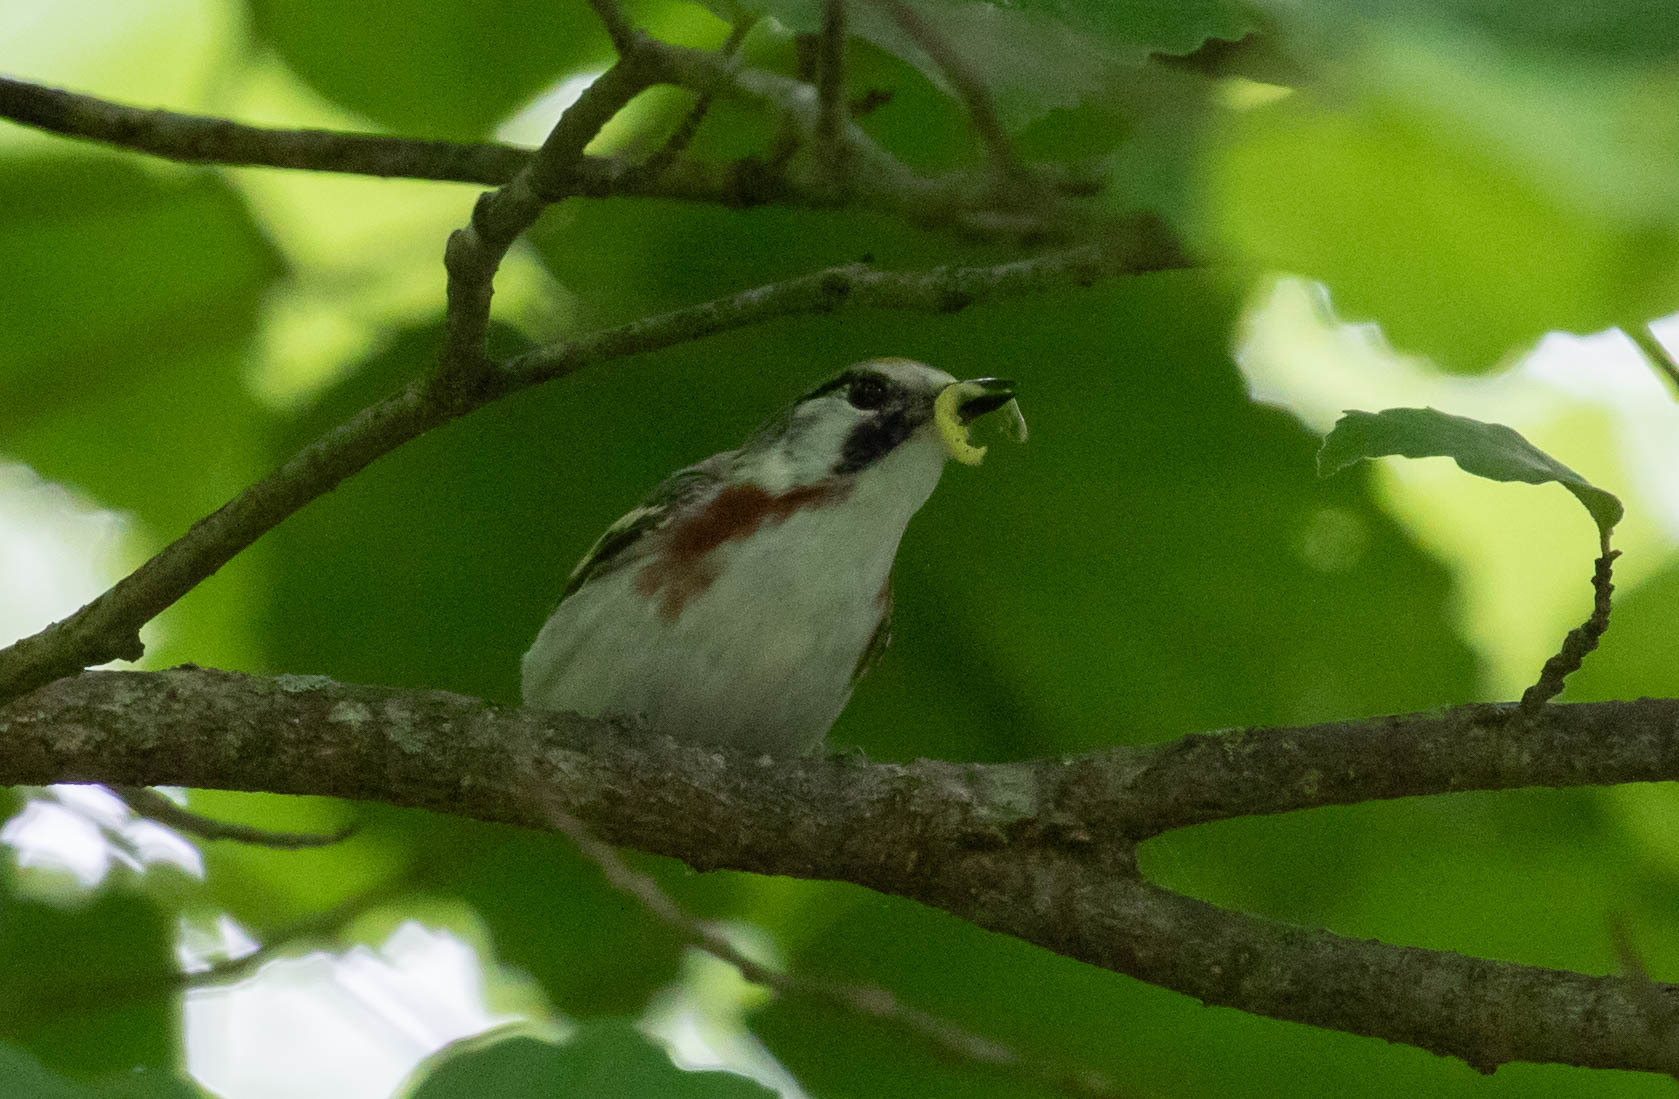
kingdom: Animalia
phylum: Chordata
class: Aves
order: Passeriformes
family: Parulidae
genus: Setophaga
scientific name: Setophaga pensylvanica
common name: Chestnut-sided warbler
